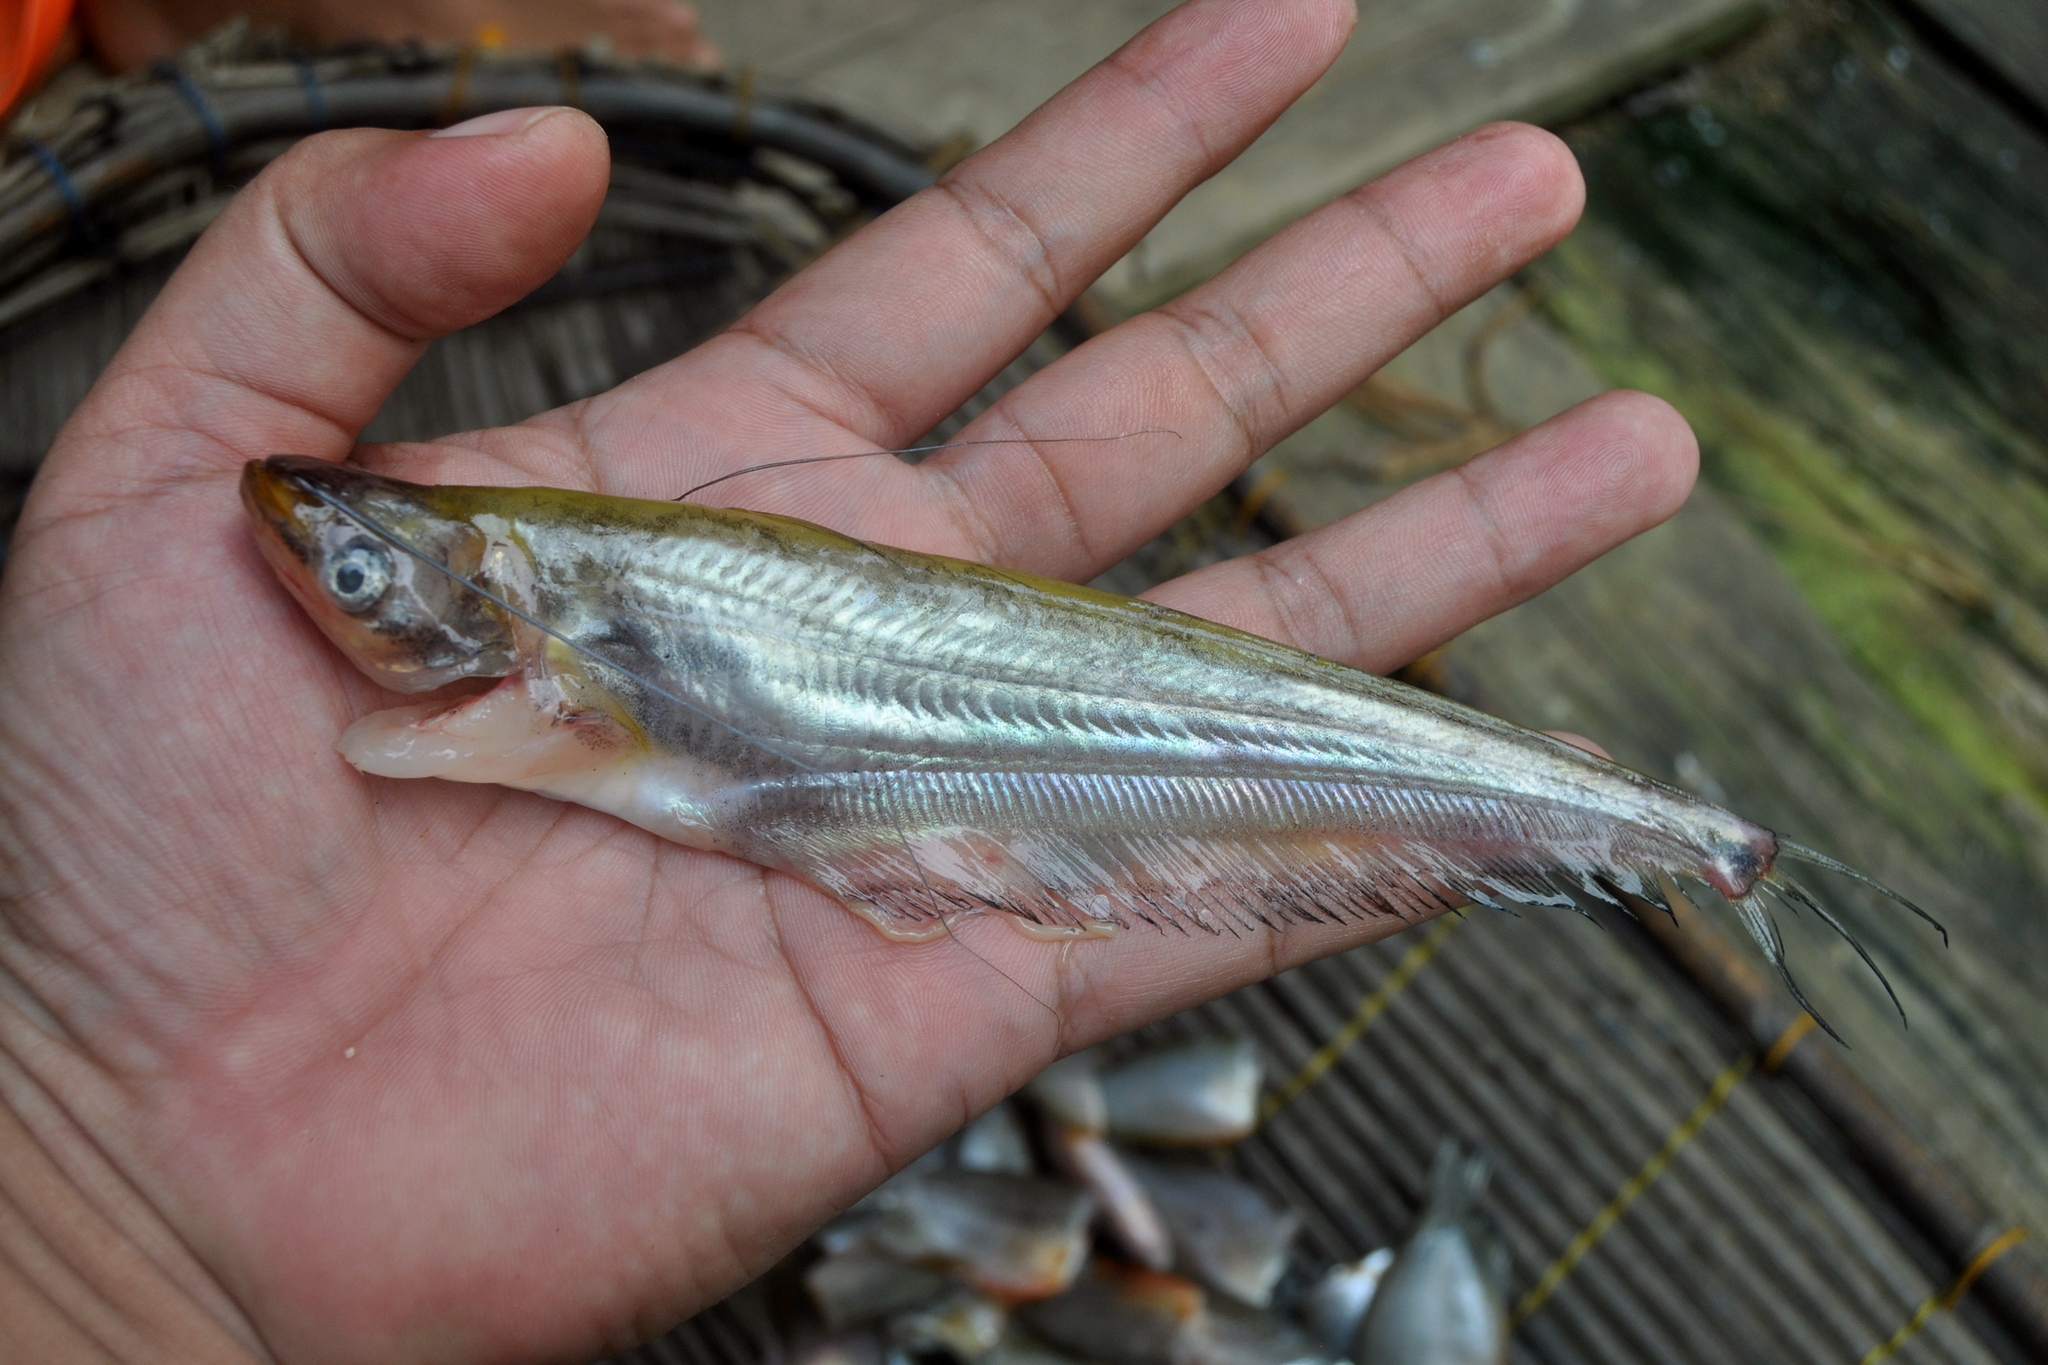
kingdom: Animalia
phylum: Chordata
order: Siluriformes
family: Siluridae
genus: Ompok
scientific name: Ompok rhadinurus
